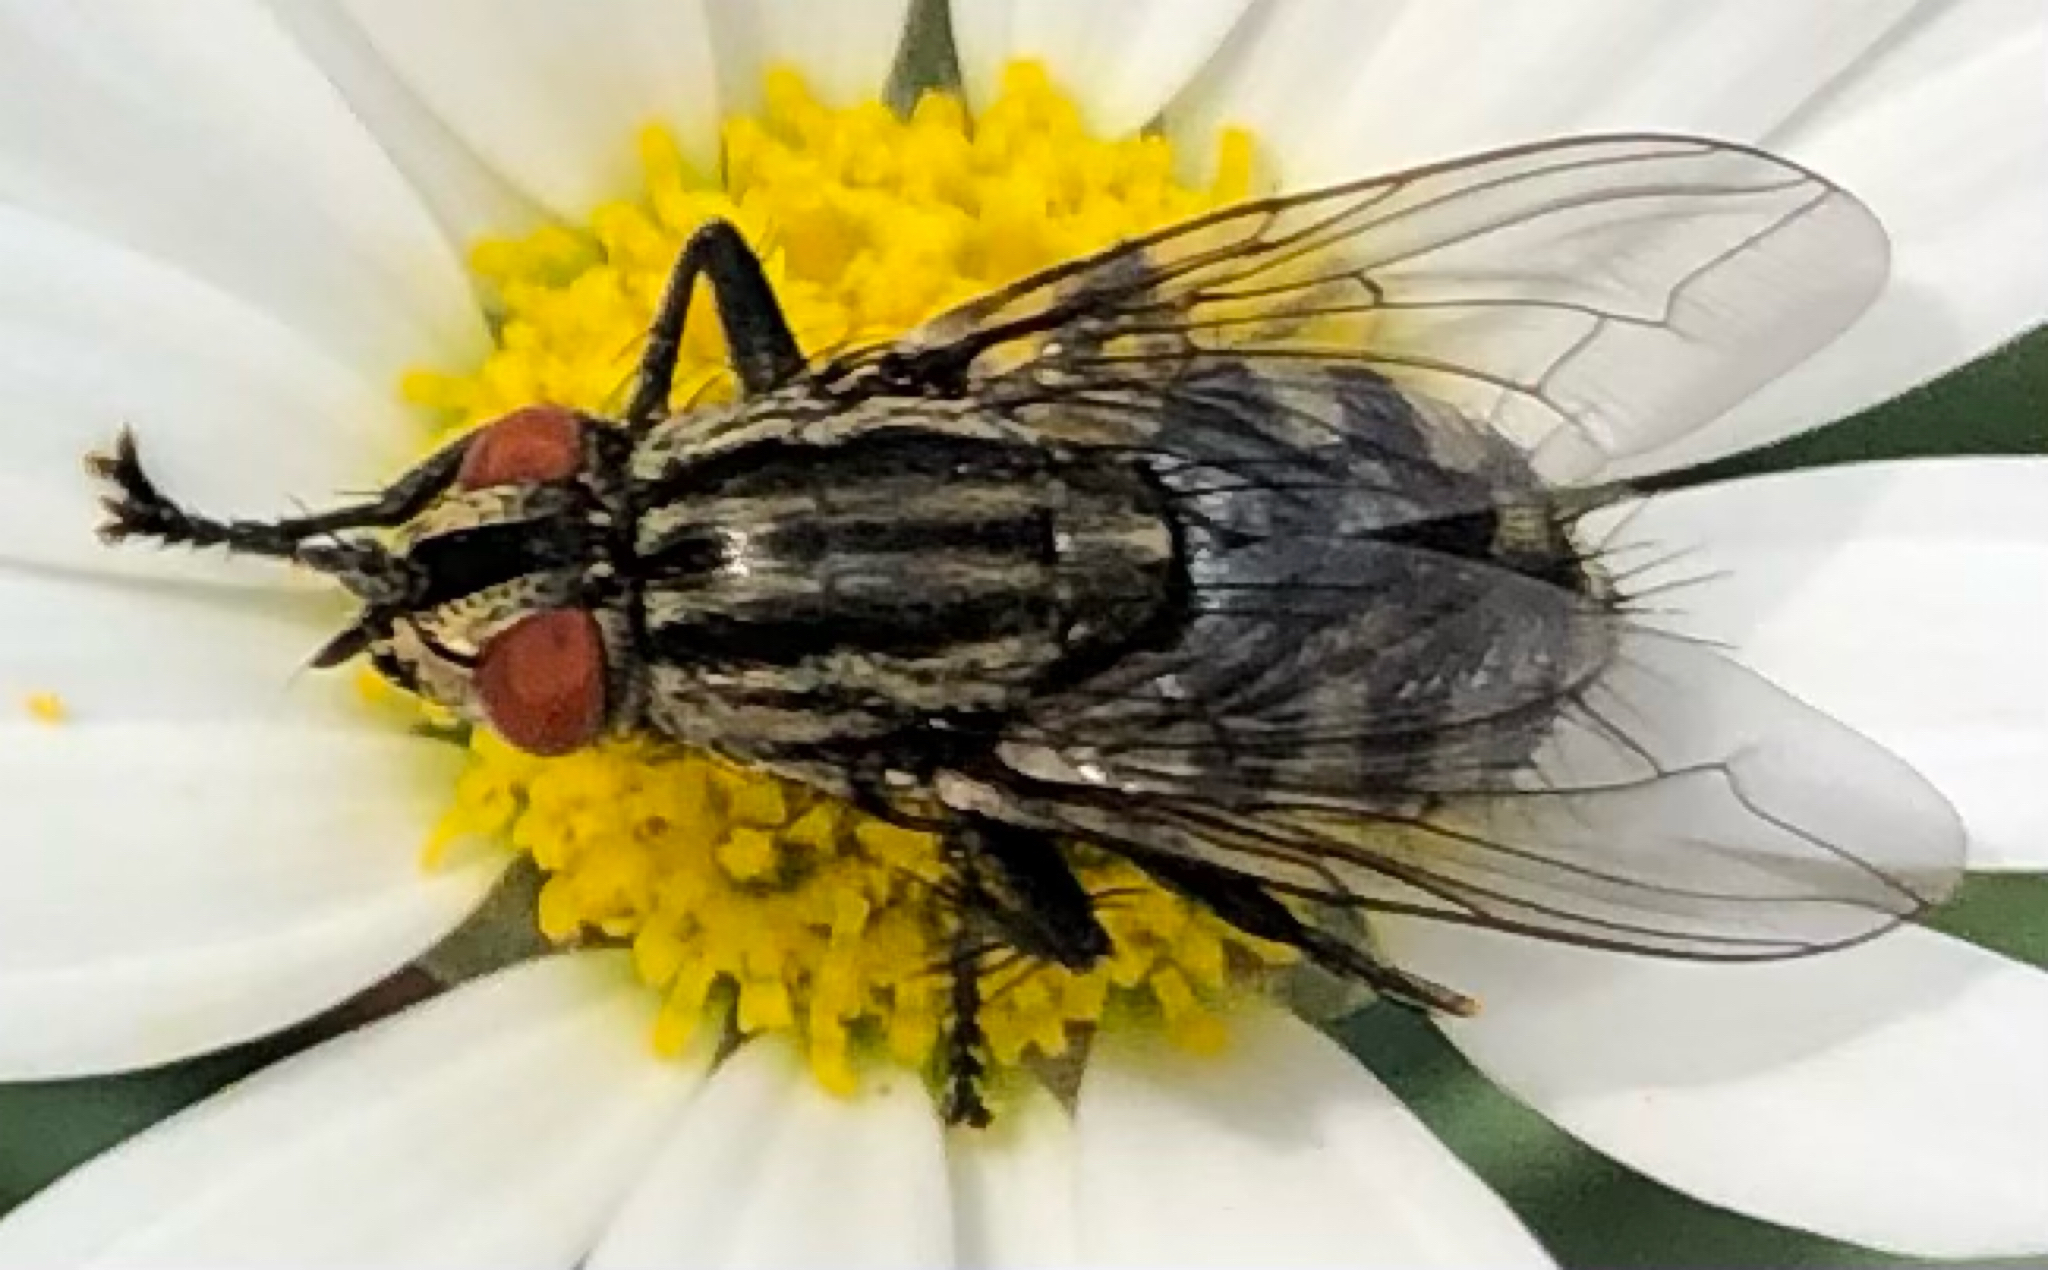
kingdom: Animalia
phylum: Arthropoda
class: Insecta
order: Diptera
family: Sarcophagidae
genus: Sarcophaga
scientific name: Sarcophaga
